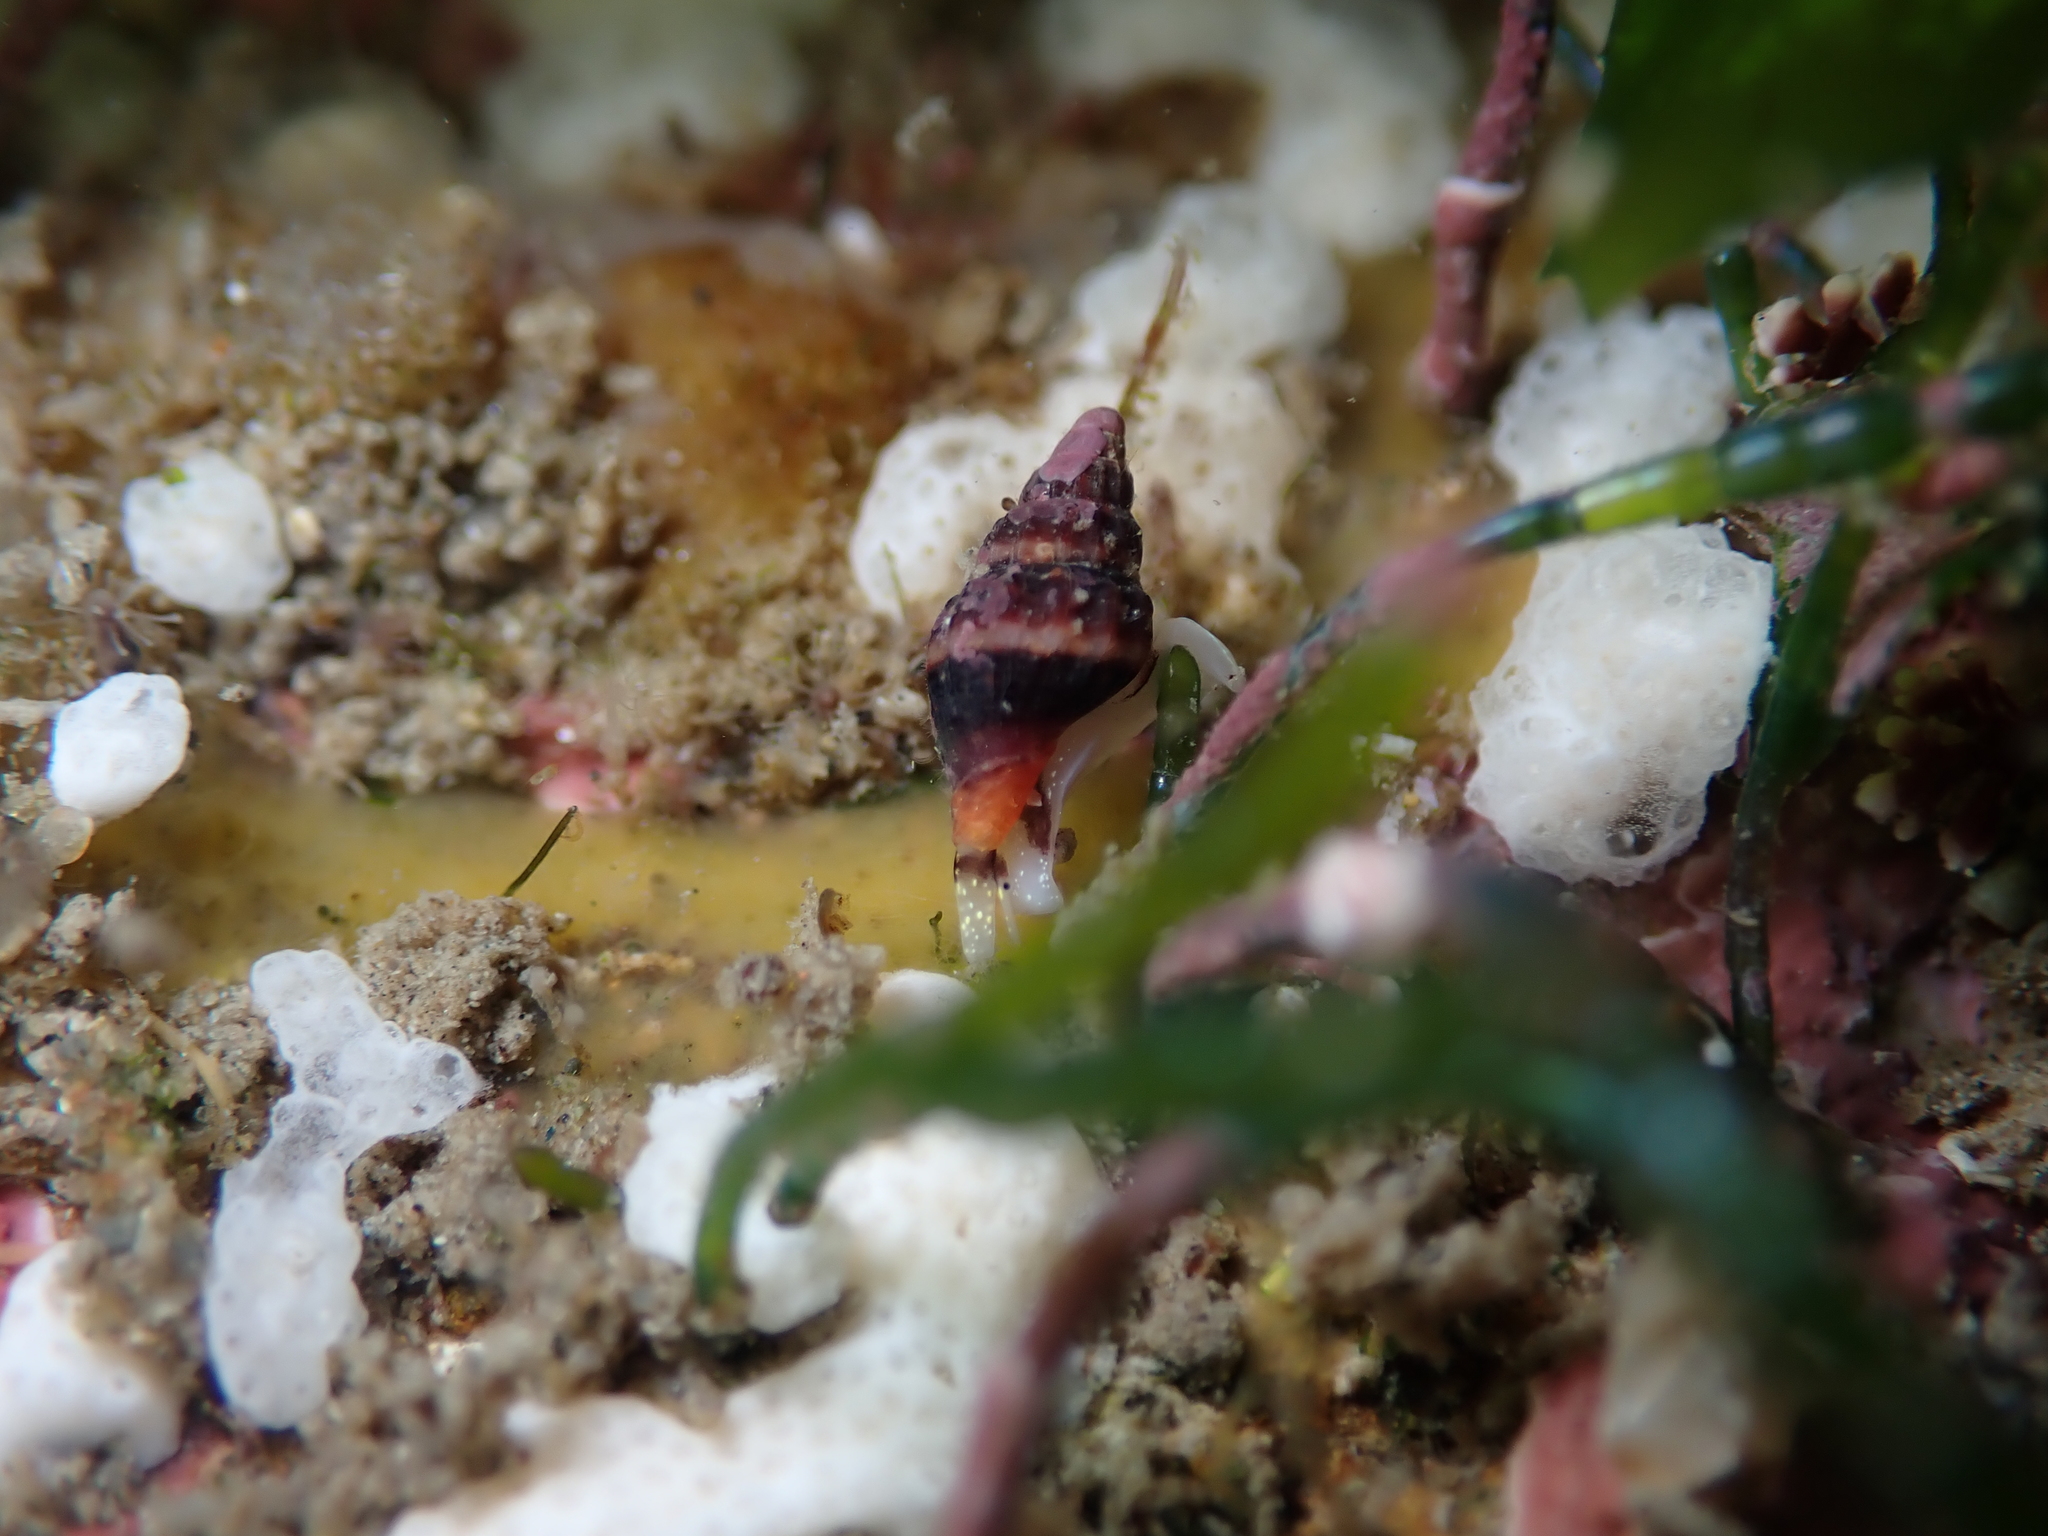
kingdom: Animalia
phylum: Mollusca
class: Gastropoda
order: Neogastropoda
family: Costellariidae
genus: Austromitra
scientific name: Austromitra rubiginosa
